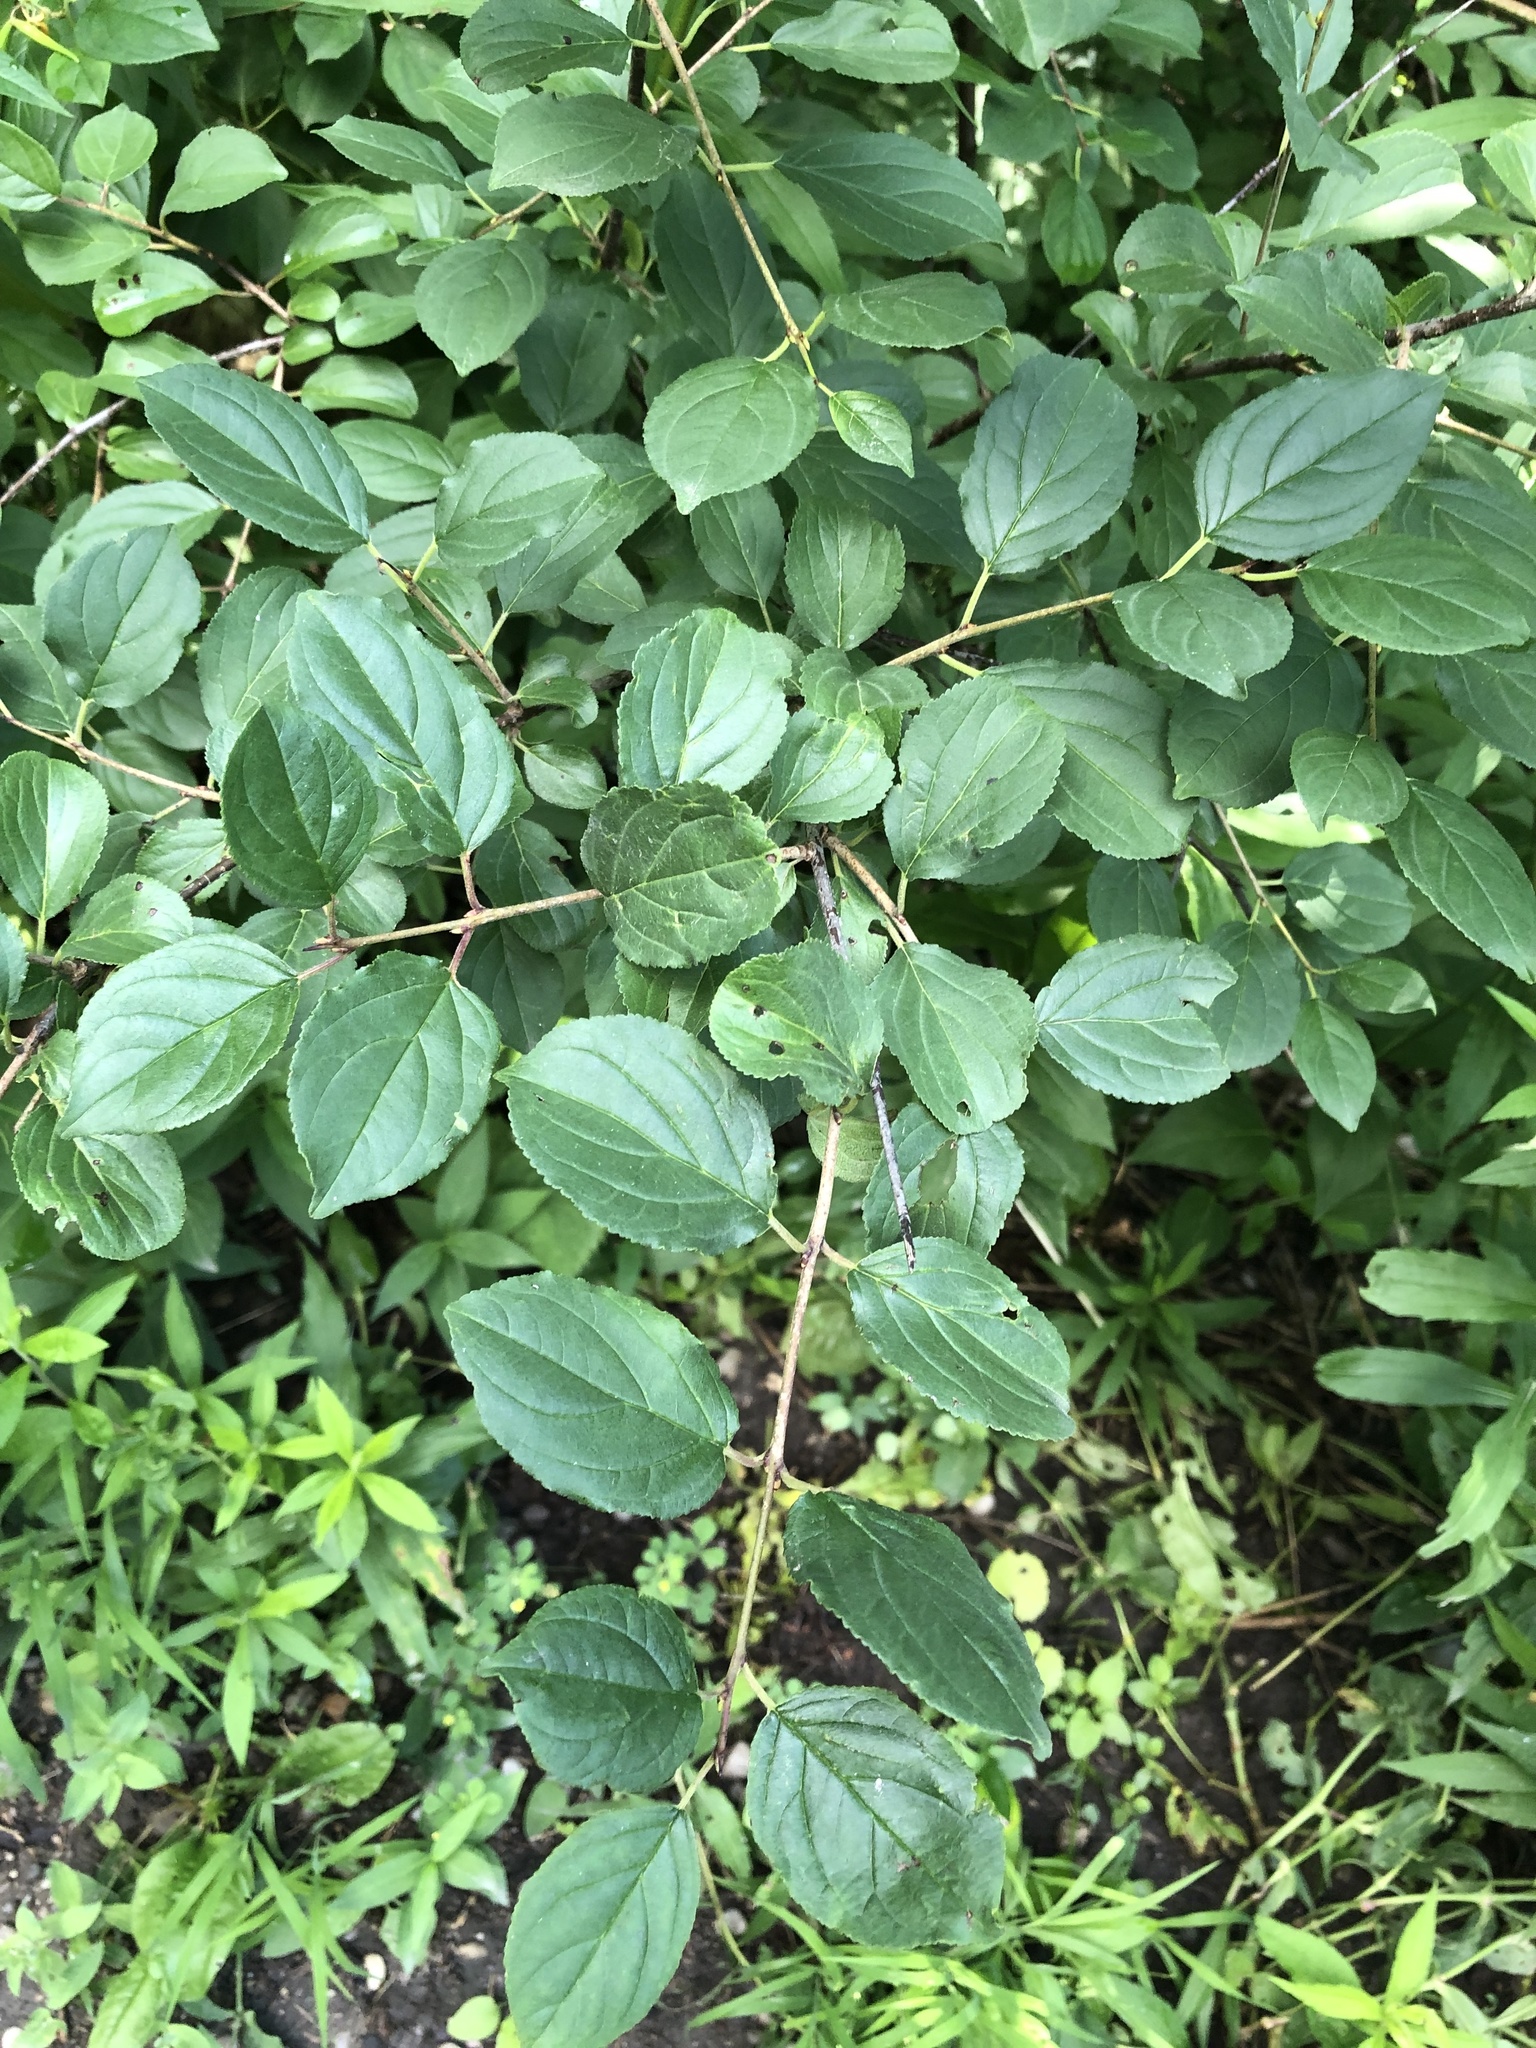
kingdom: Plantae
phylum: Tracheophyta
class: Magnoliopsida
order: Rosales
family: Rhamnaceae
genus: Rhamnus
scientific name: Rhamnus cathartica
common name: Common buckthorn
